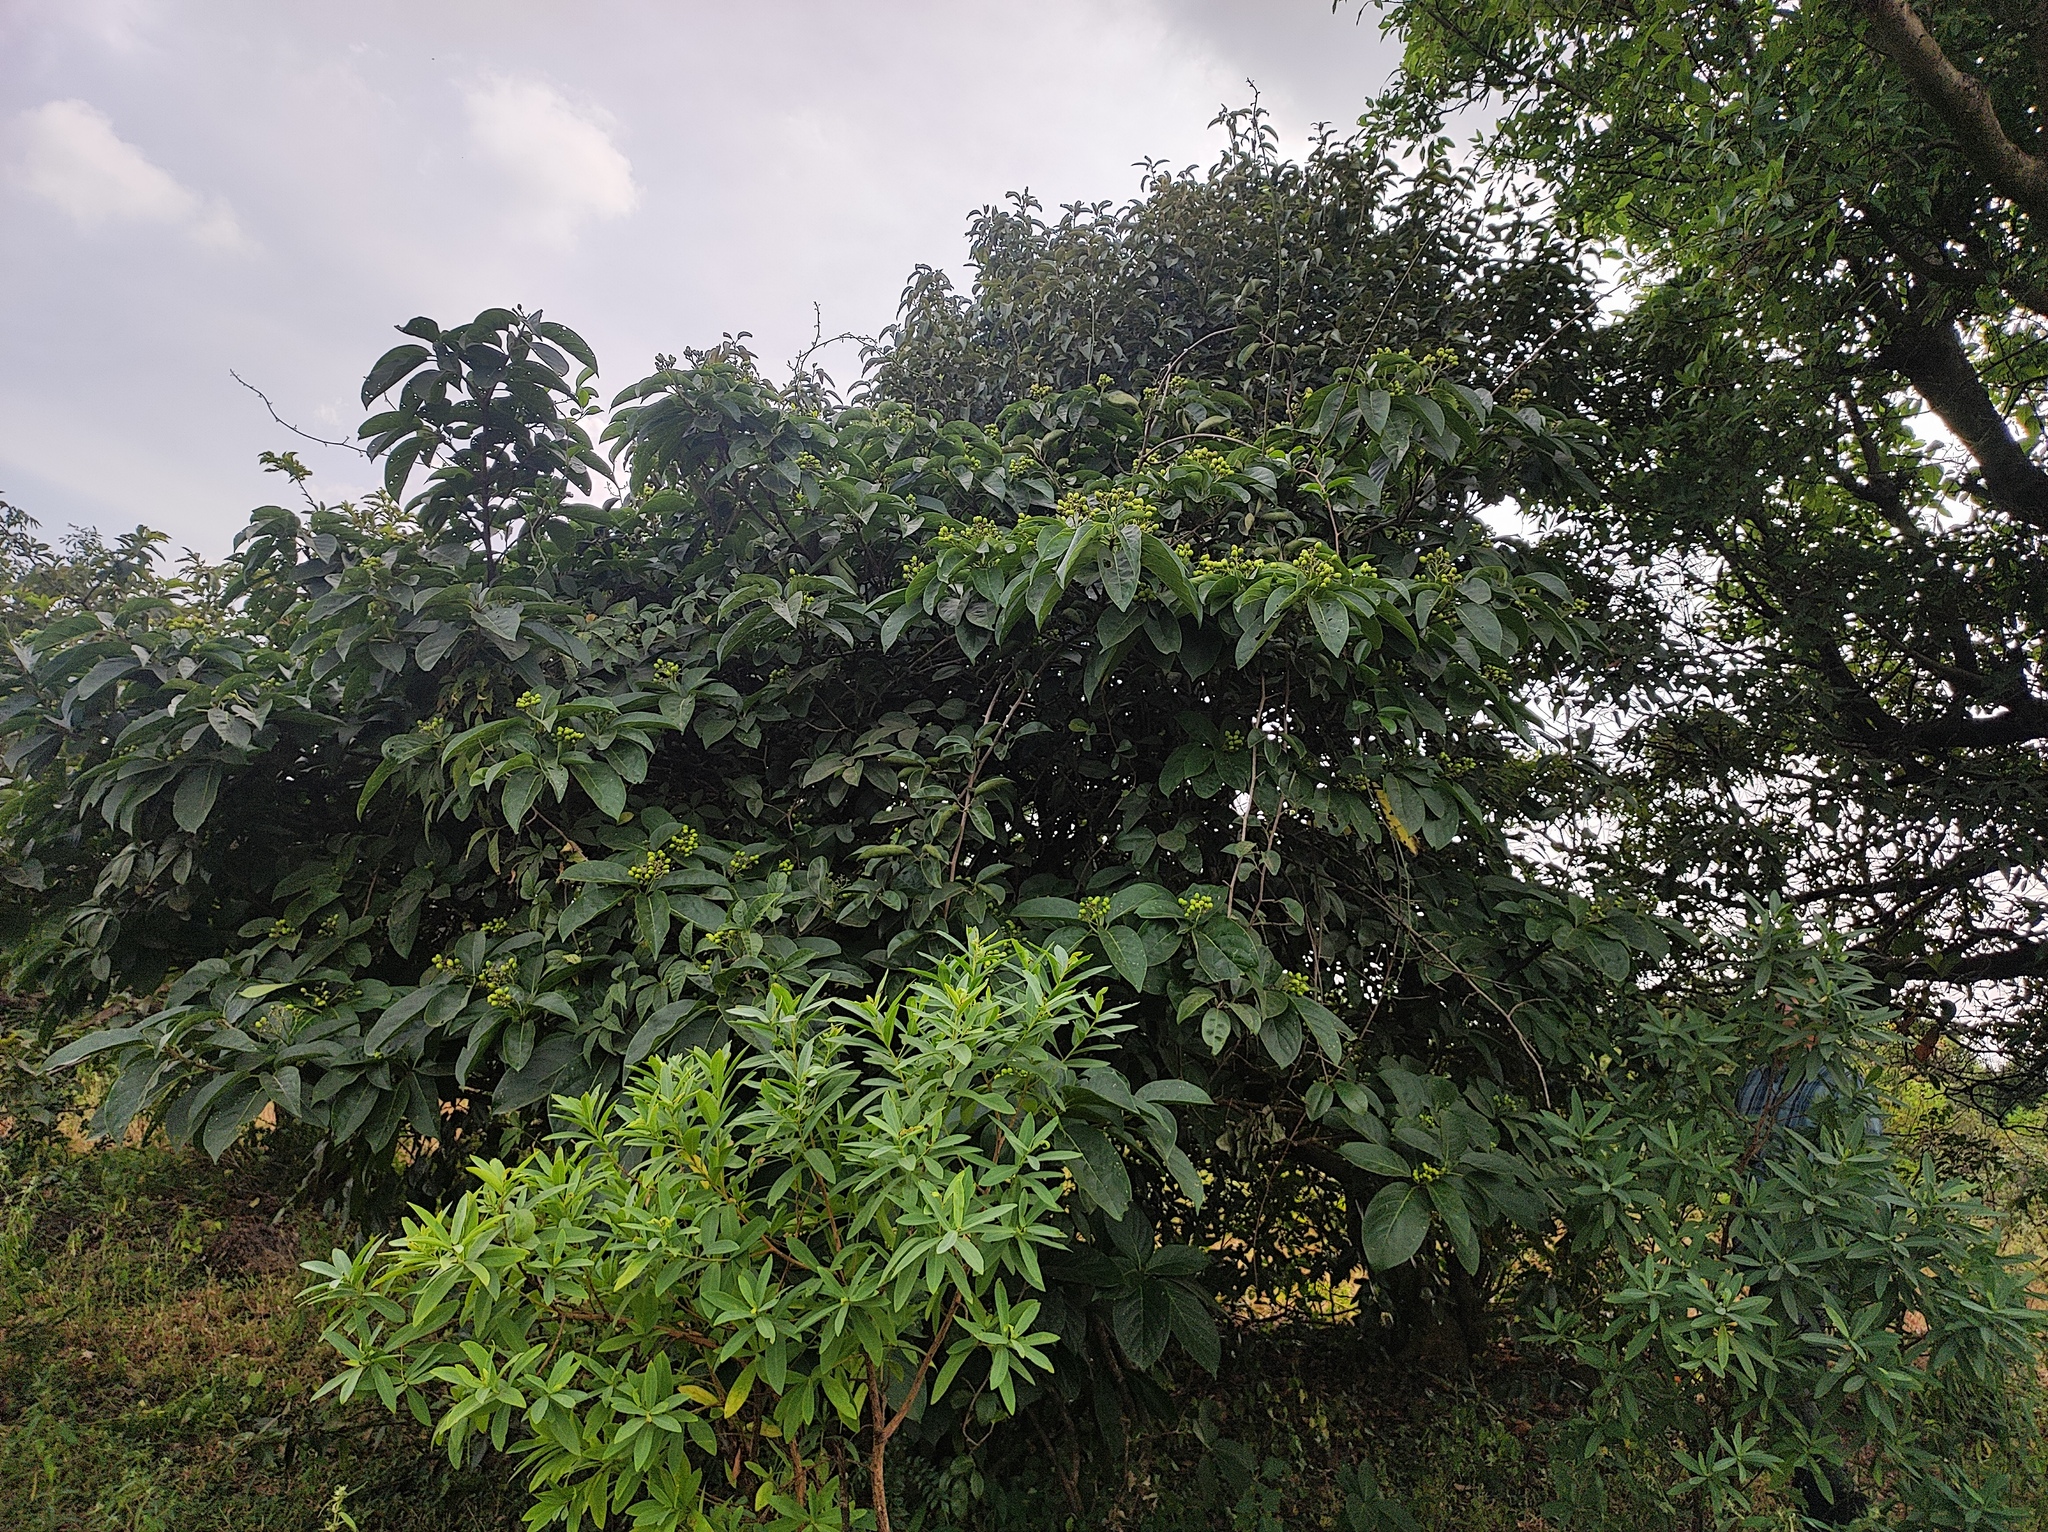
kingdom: Plantae
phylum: Tracheophyta
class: Magnoliopsida
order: Ranunculales
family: Ranunculaceae
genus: Clematis
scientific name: Clematis hedysarifolia
